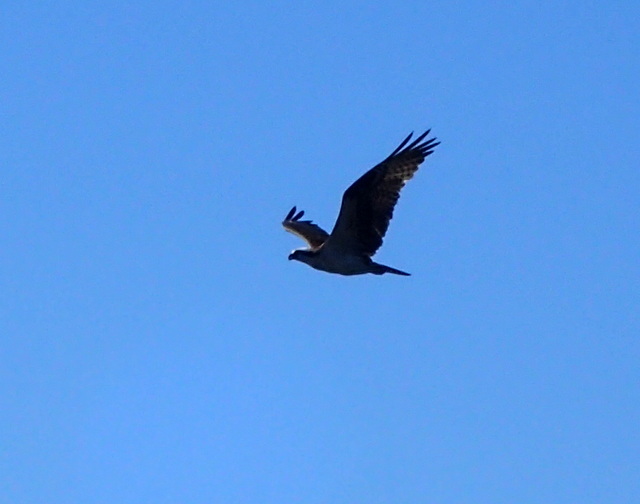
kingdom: Animalia
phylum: Chordata
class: Aves
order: Accipitriformes
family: Pandionidae
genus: Pandion
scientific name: Pandion haliaetus
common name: Osprey
